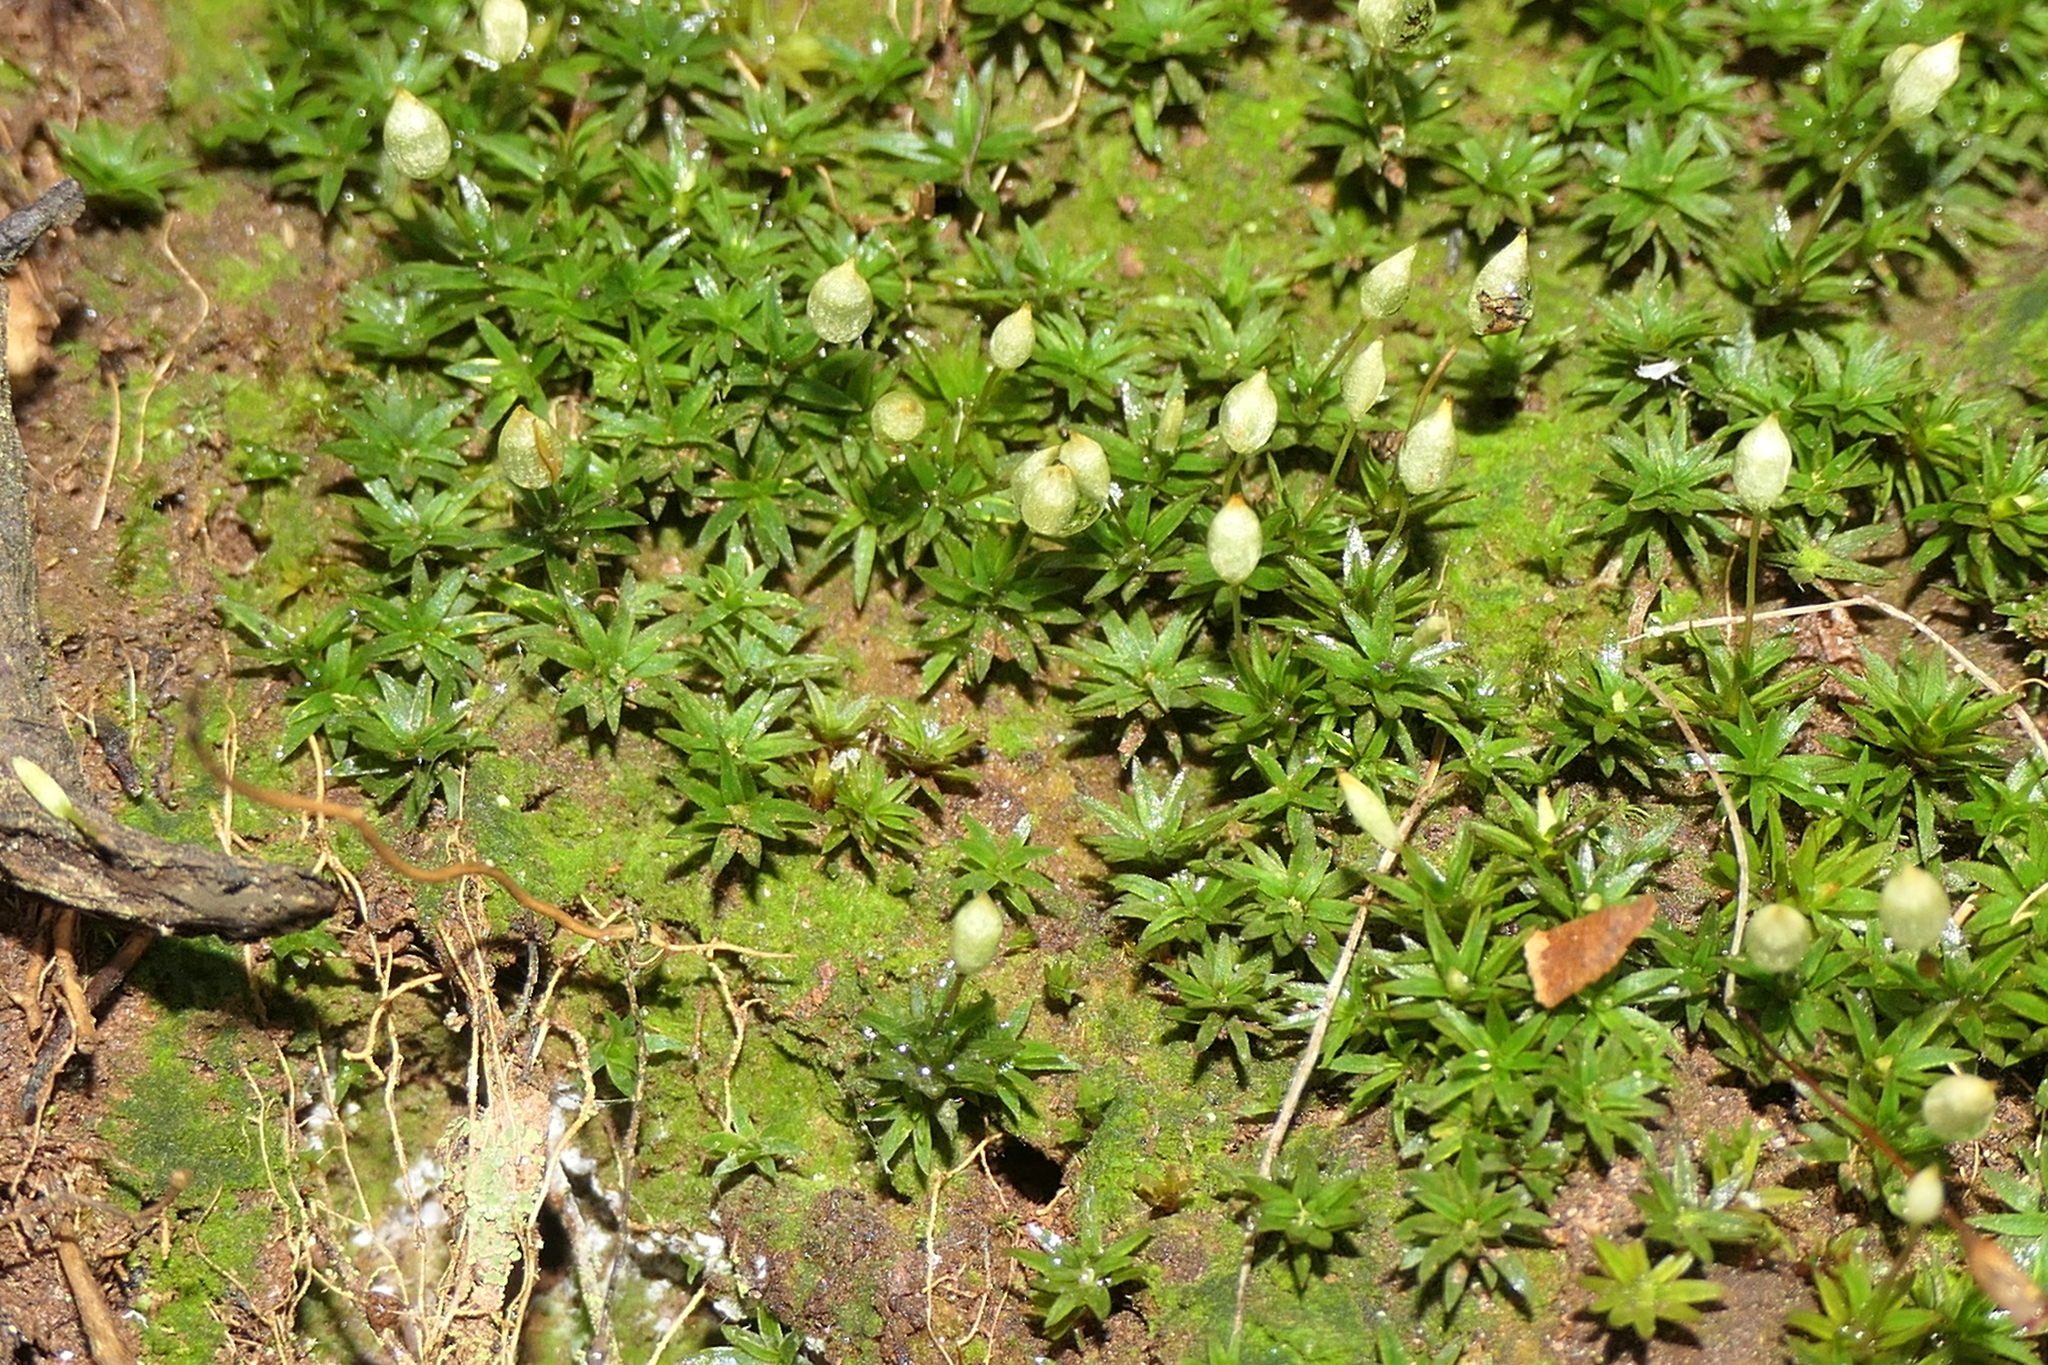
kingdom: Plantae
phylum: Bryophyta
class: Polytrichopsida
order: Polytrichales
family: Polytrichaceae
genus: Pogonatum
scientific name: Pogonatum aloides
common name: Aloe haircap
